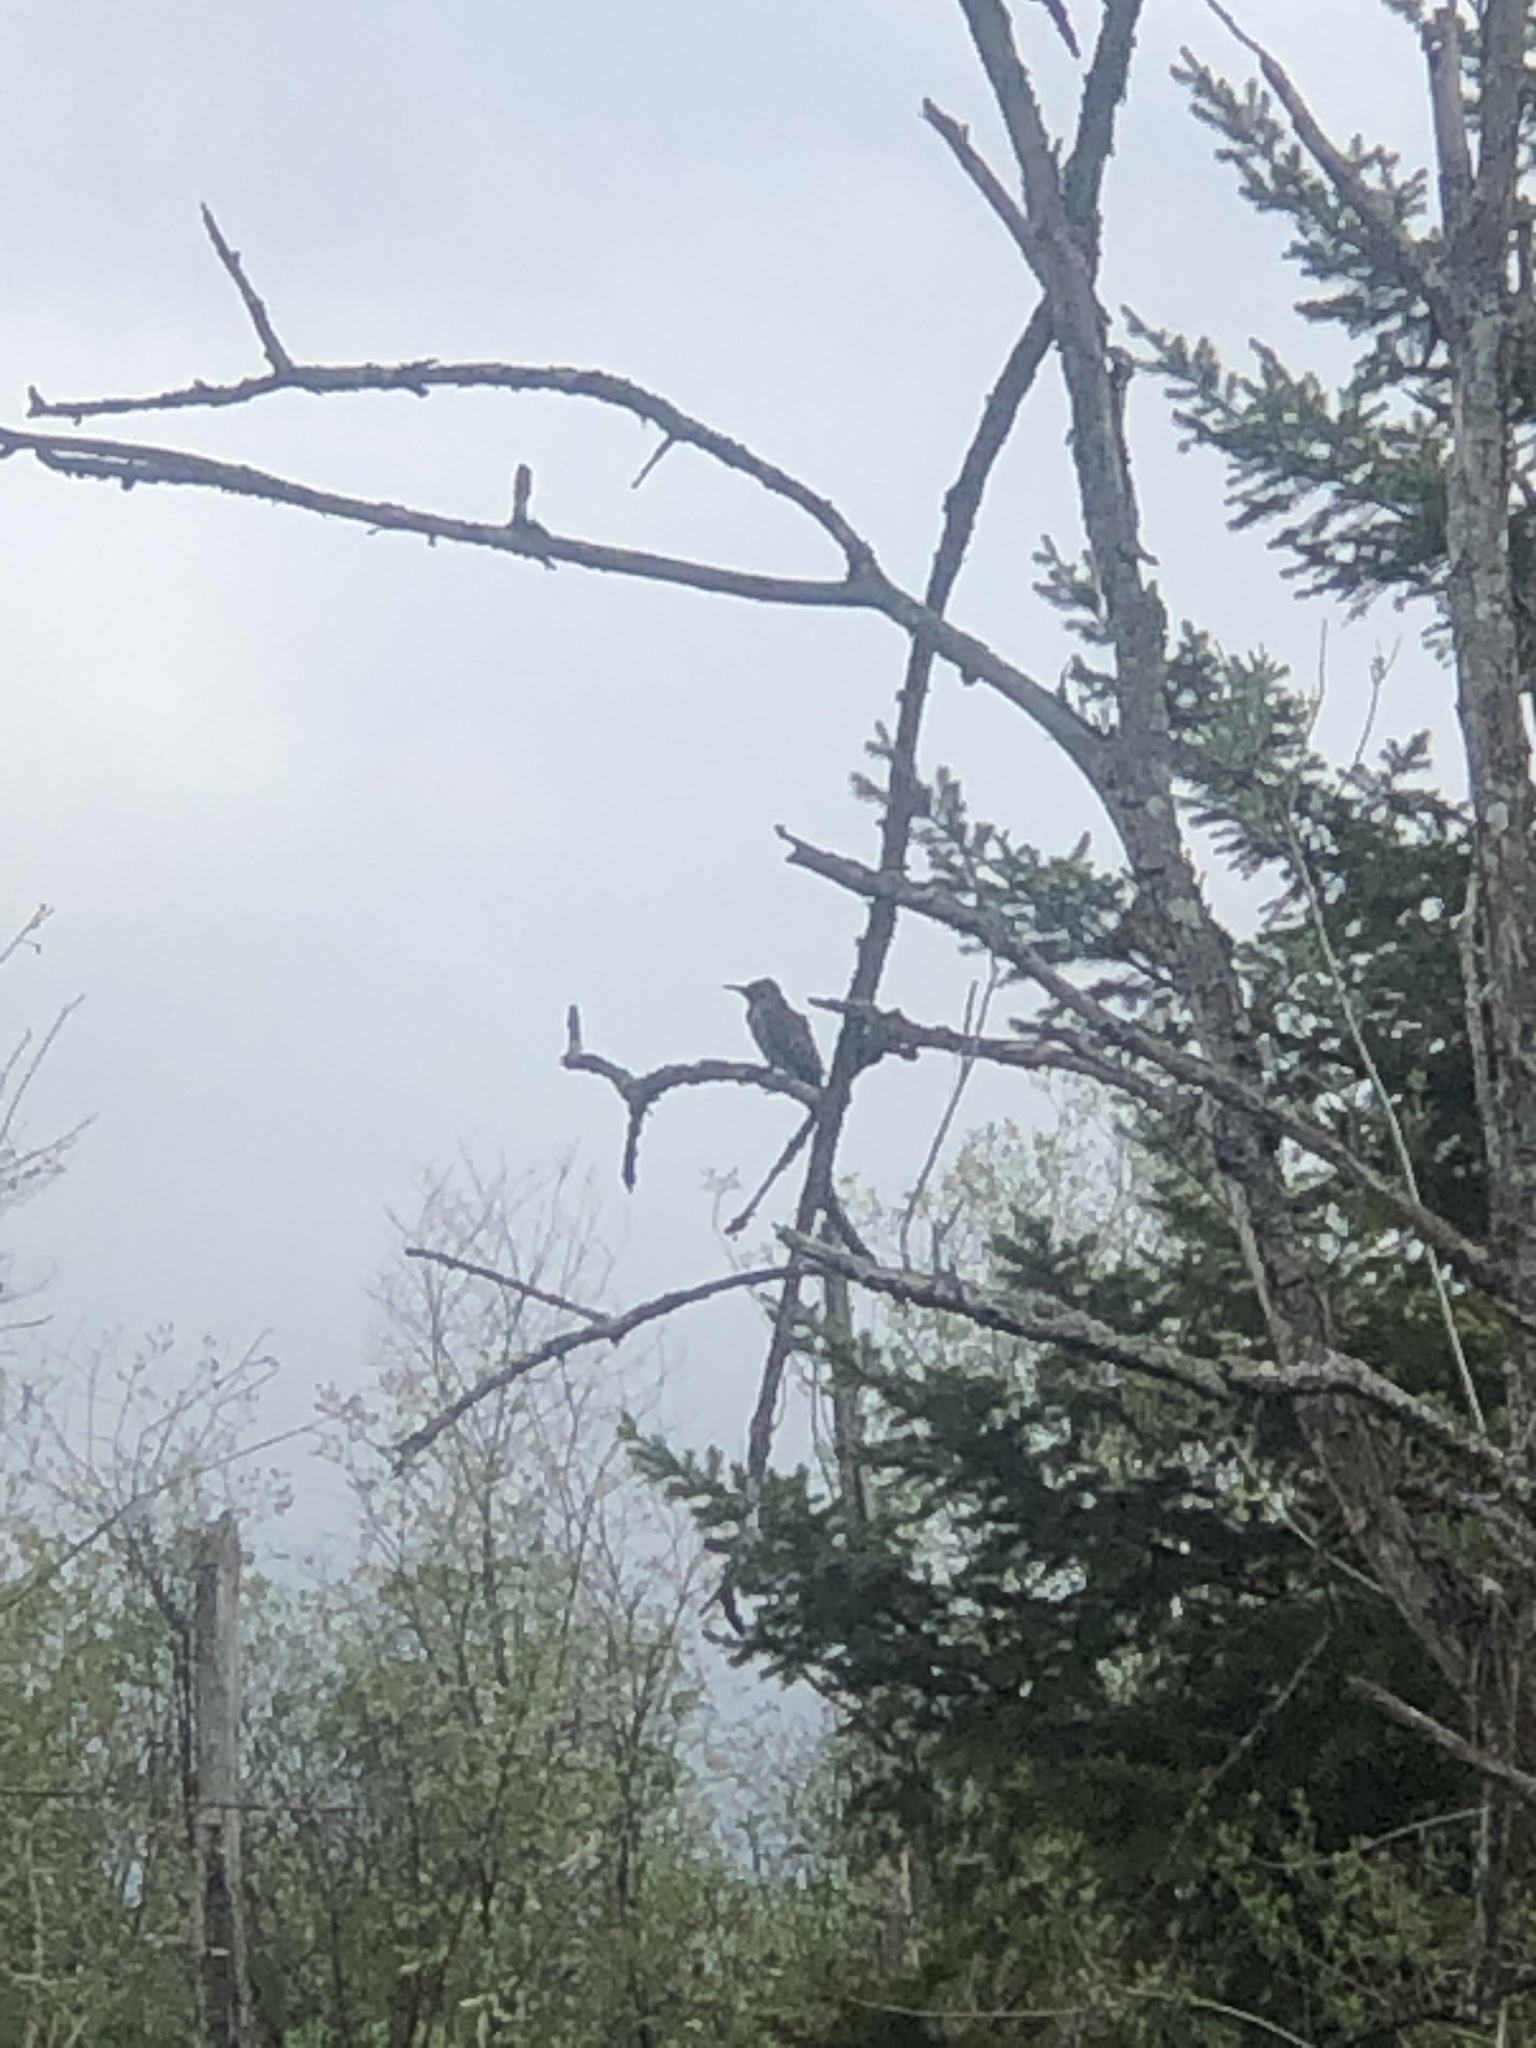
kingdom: Animalia
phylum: Chordata
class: Aves
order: Piciformes
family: Picidae
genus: Colaptes
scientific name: Colaptes auratus
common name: Northern flicker
